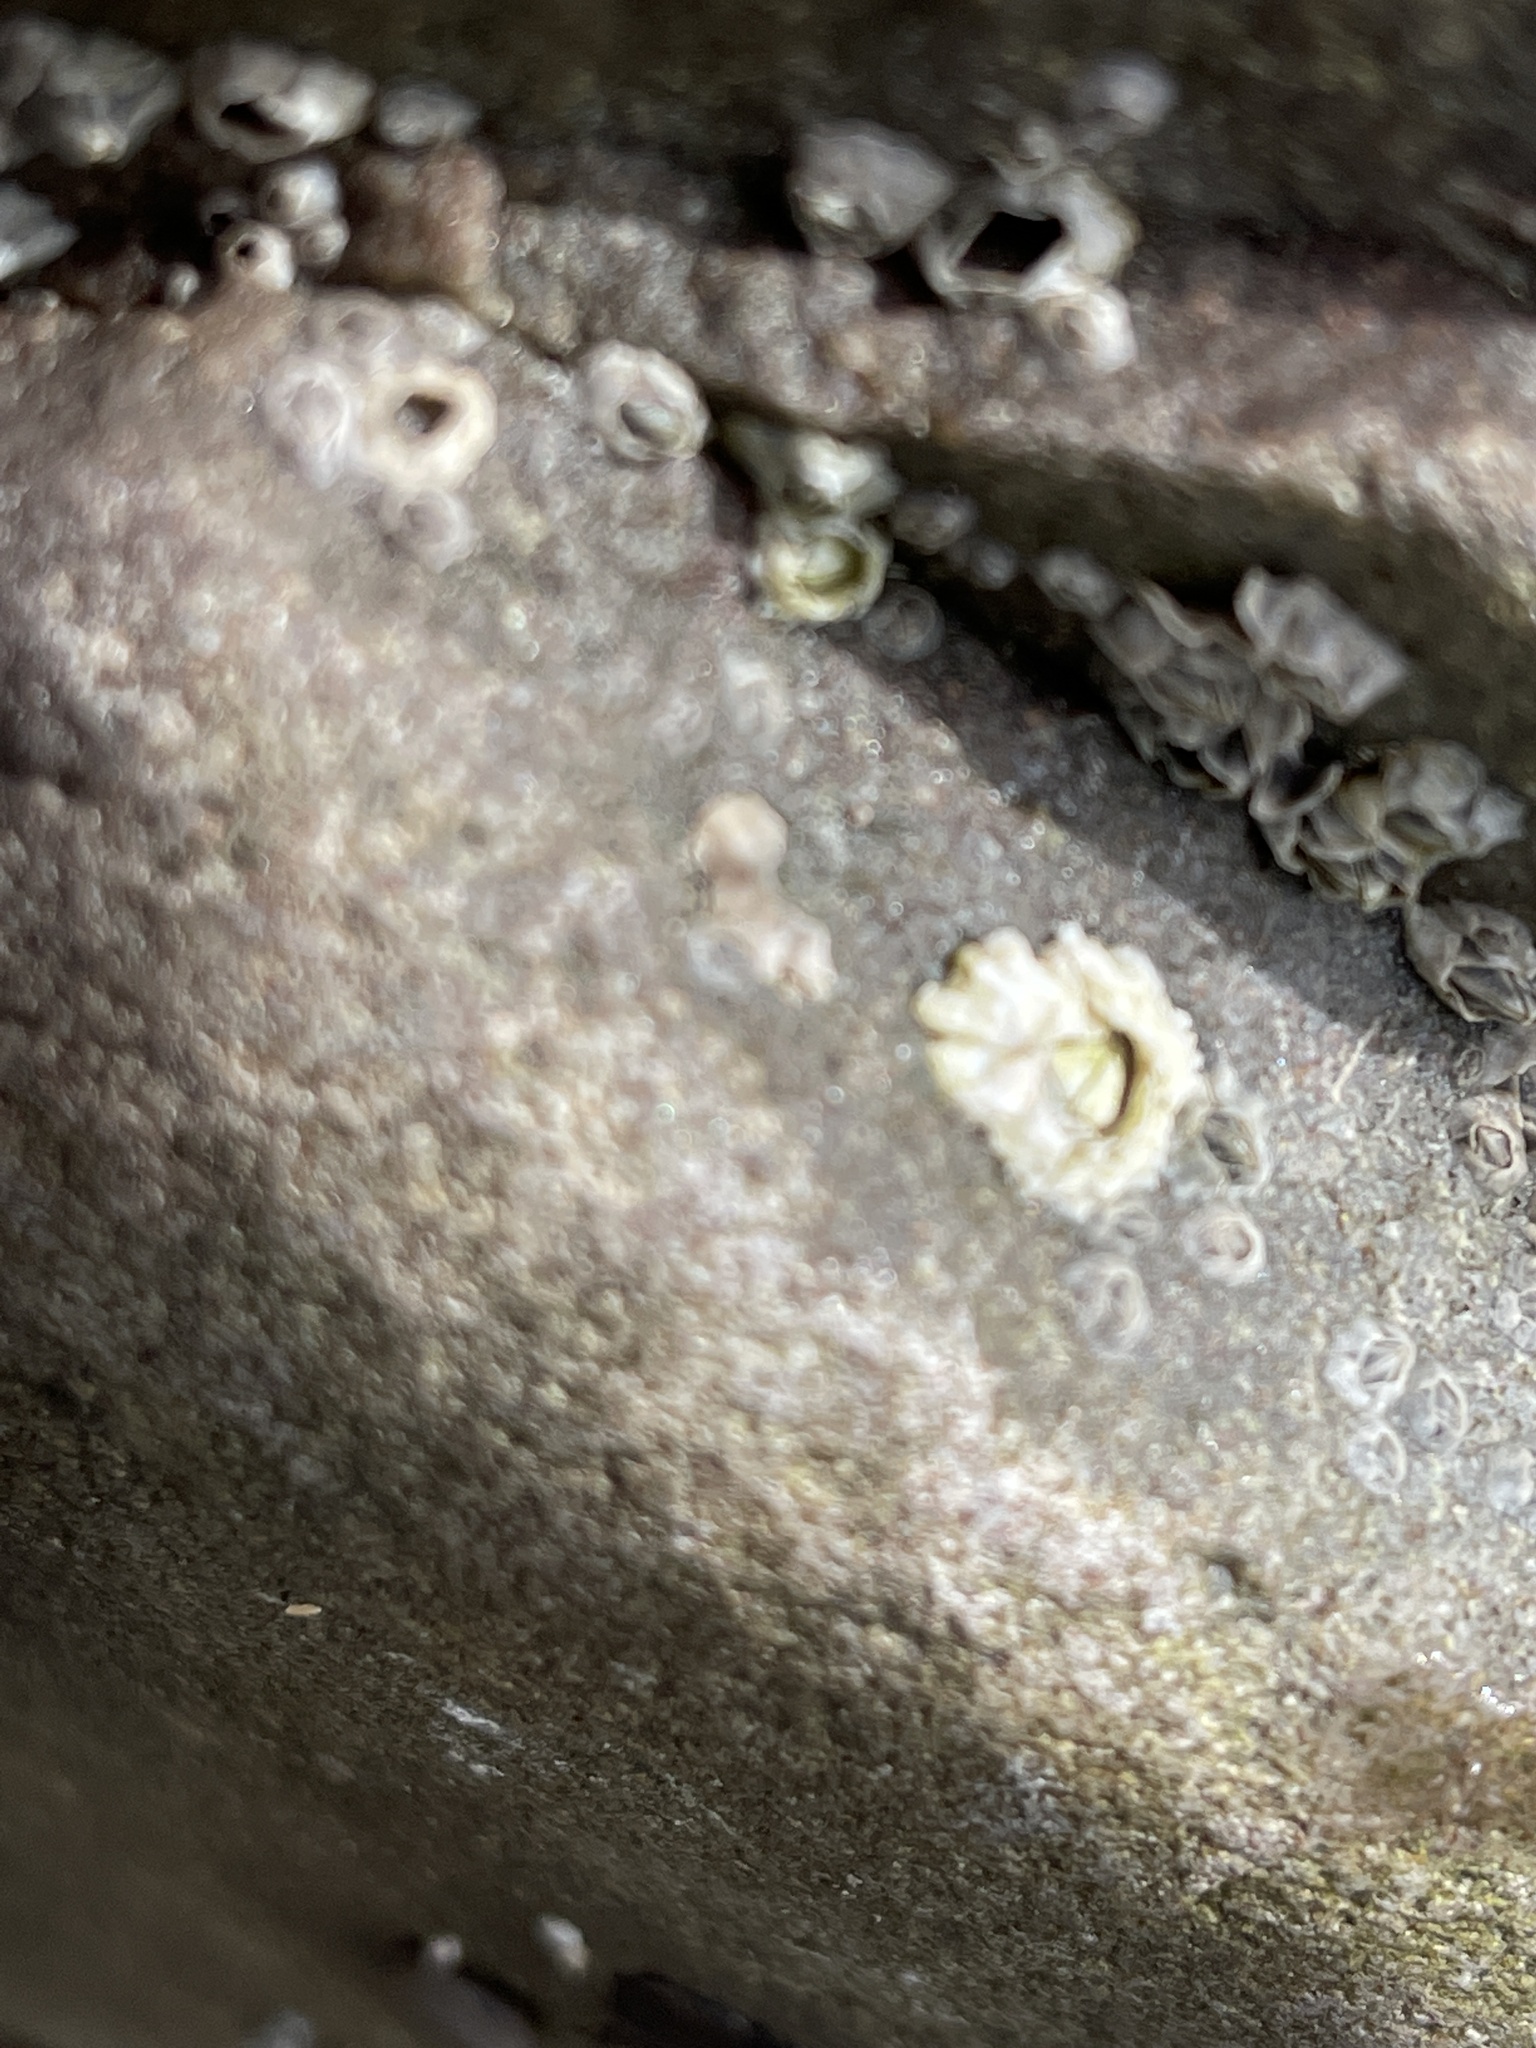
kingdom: Animalia
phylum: Arthropoda
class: Maxillopoda
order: Sessilia
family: Archaeobalanidae
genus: Semibalanus
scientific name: Semibalanus balanoides
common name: Acorn barnacle
